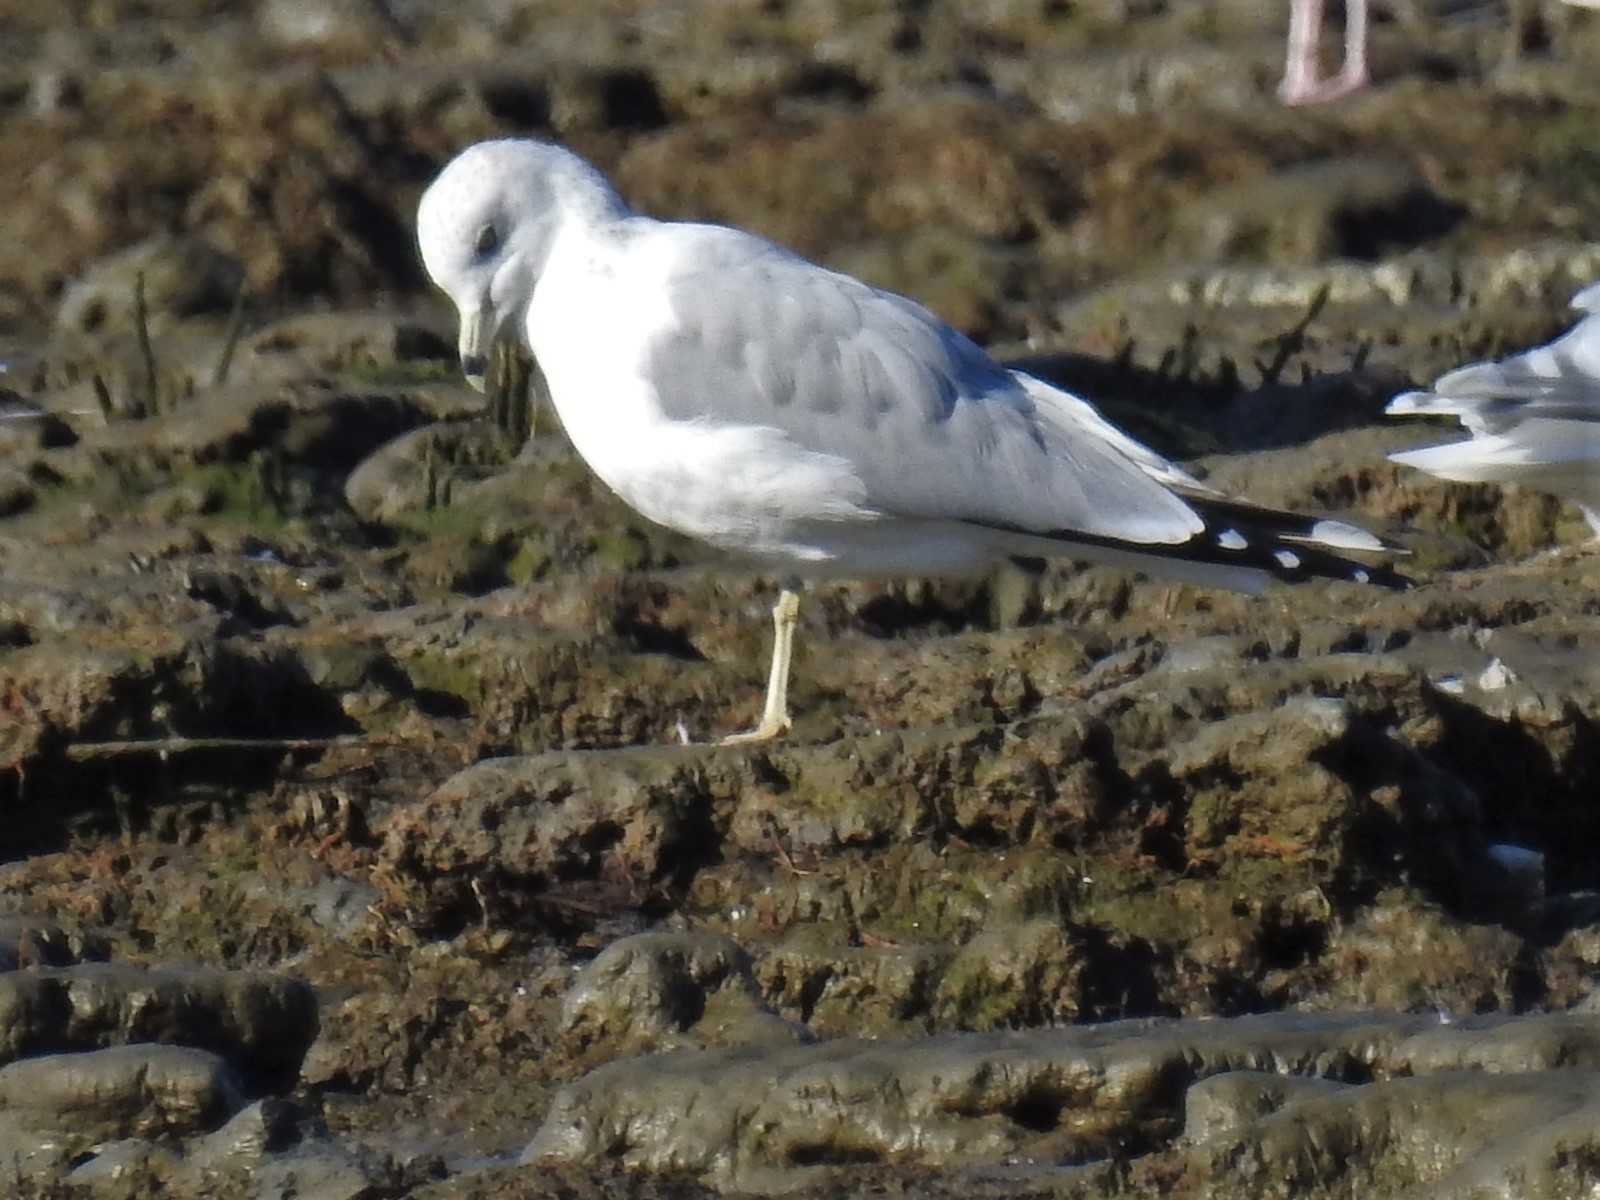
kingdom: Animalia
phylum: Chordata
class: Aves
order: Charadriiformes
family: Laridae
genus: Larus
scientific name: Larus delawarensis
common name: Ring-billed gull
